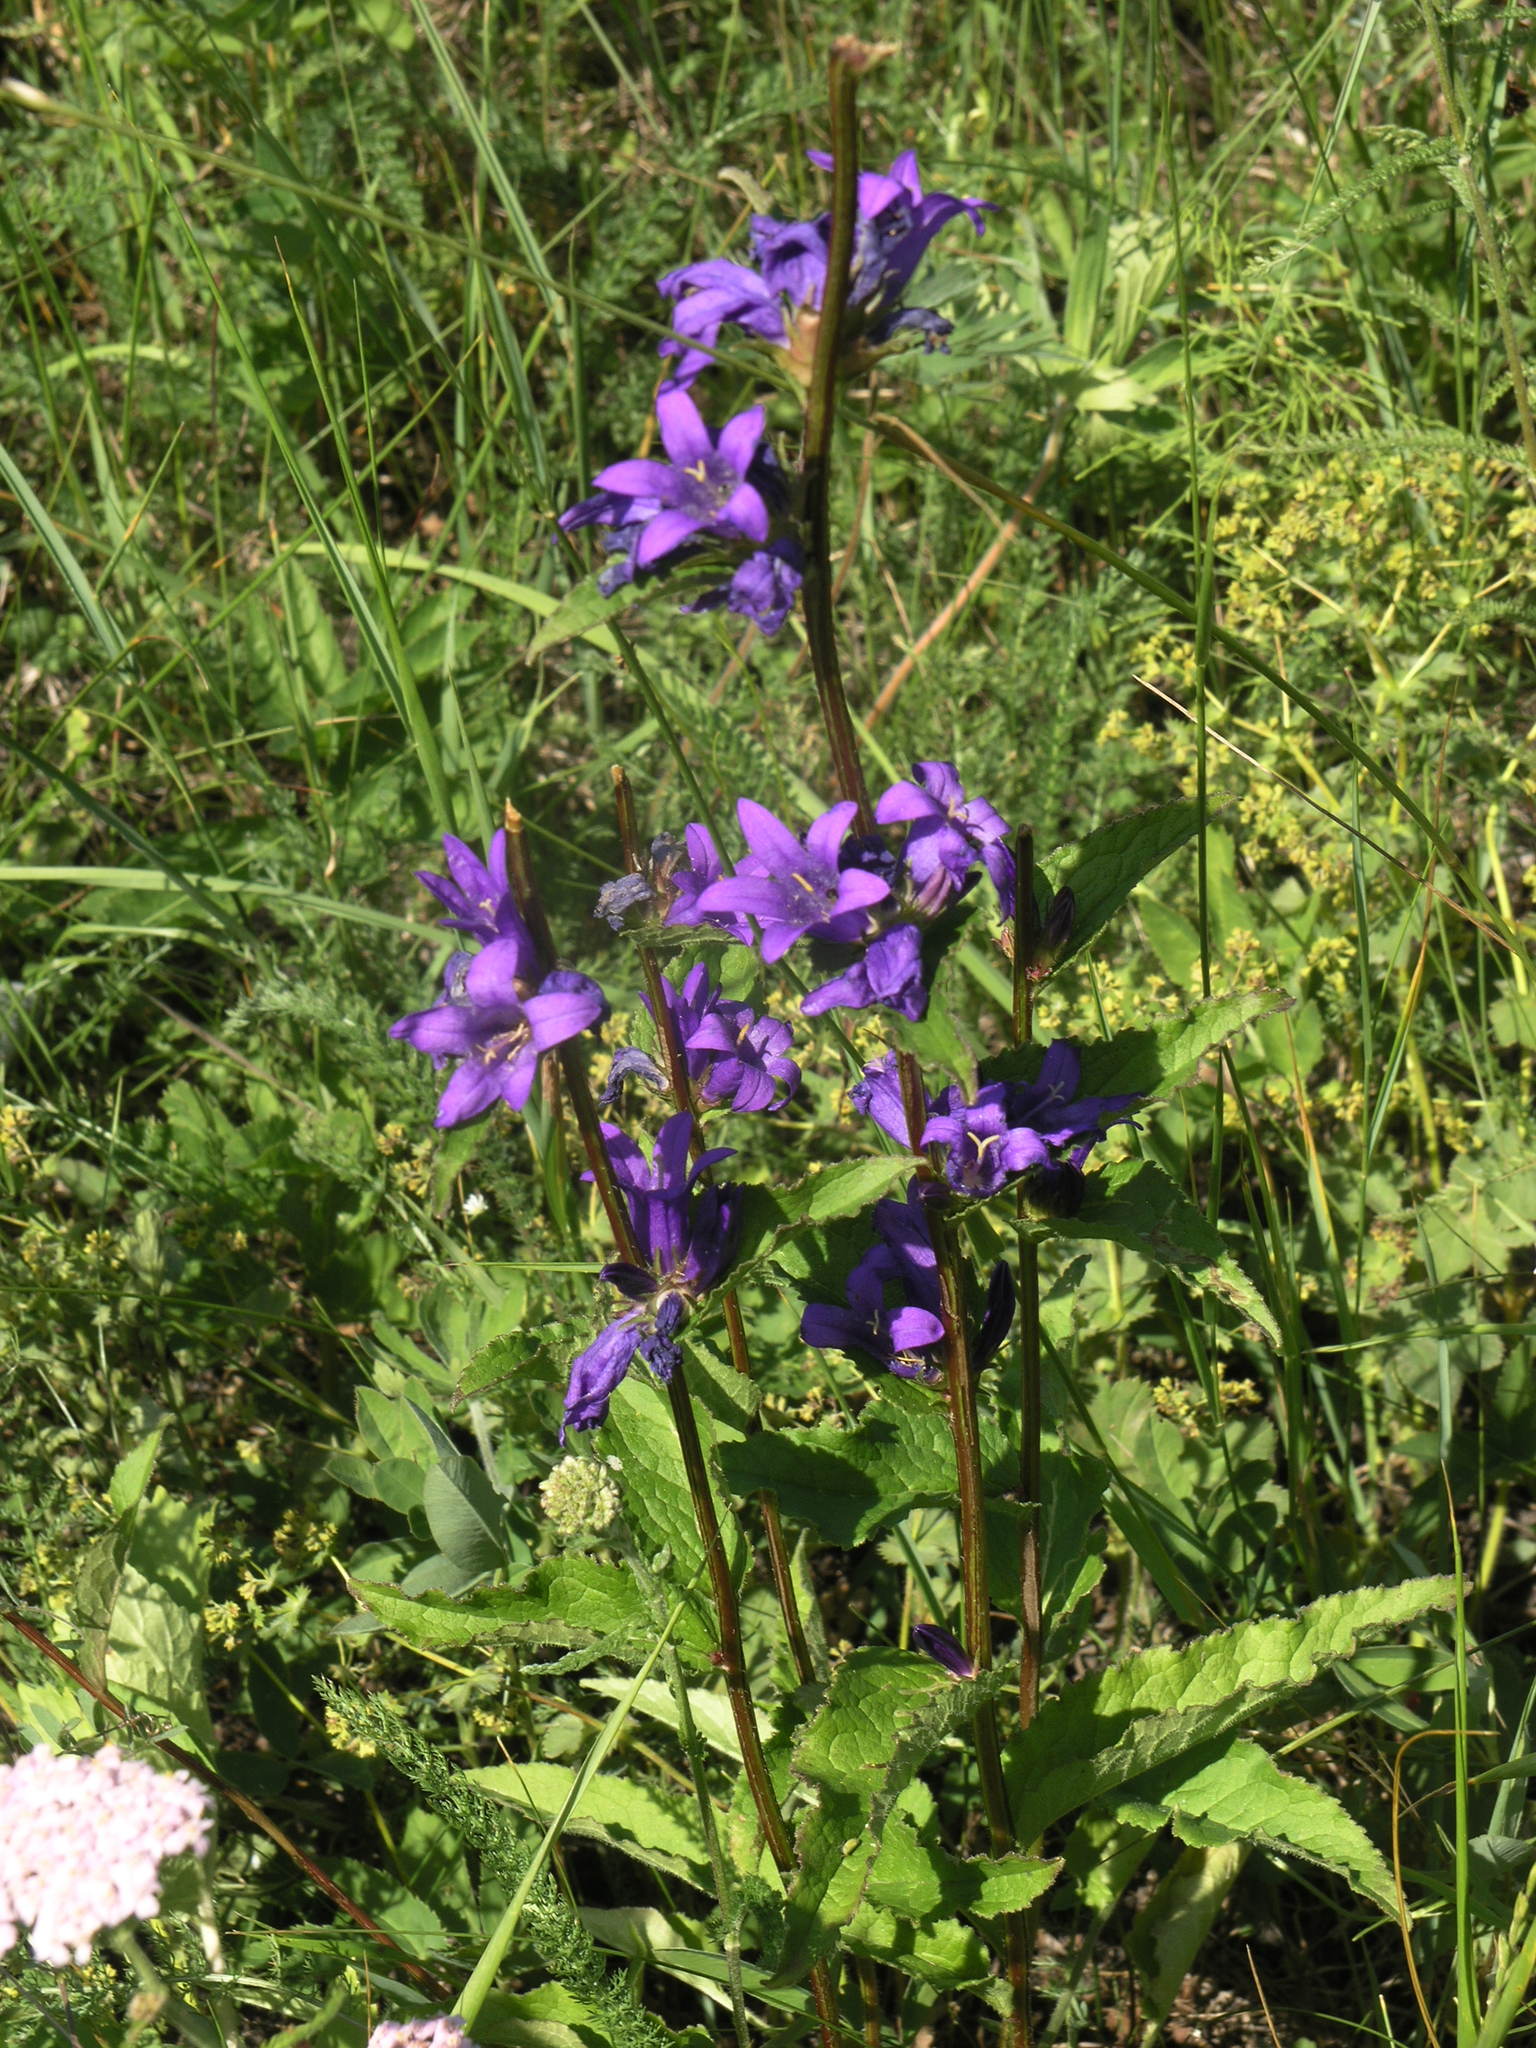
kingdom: Plantae
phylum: Tracheophyta
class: Magnoliopsida
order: Asterales
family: Campanulaceae
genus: Campanula
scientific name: Campanula glomerata
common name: Clustered bellflower
